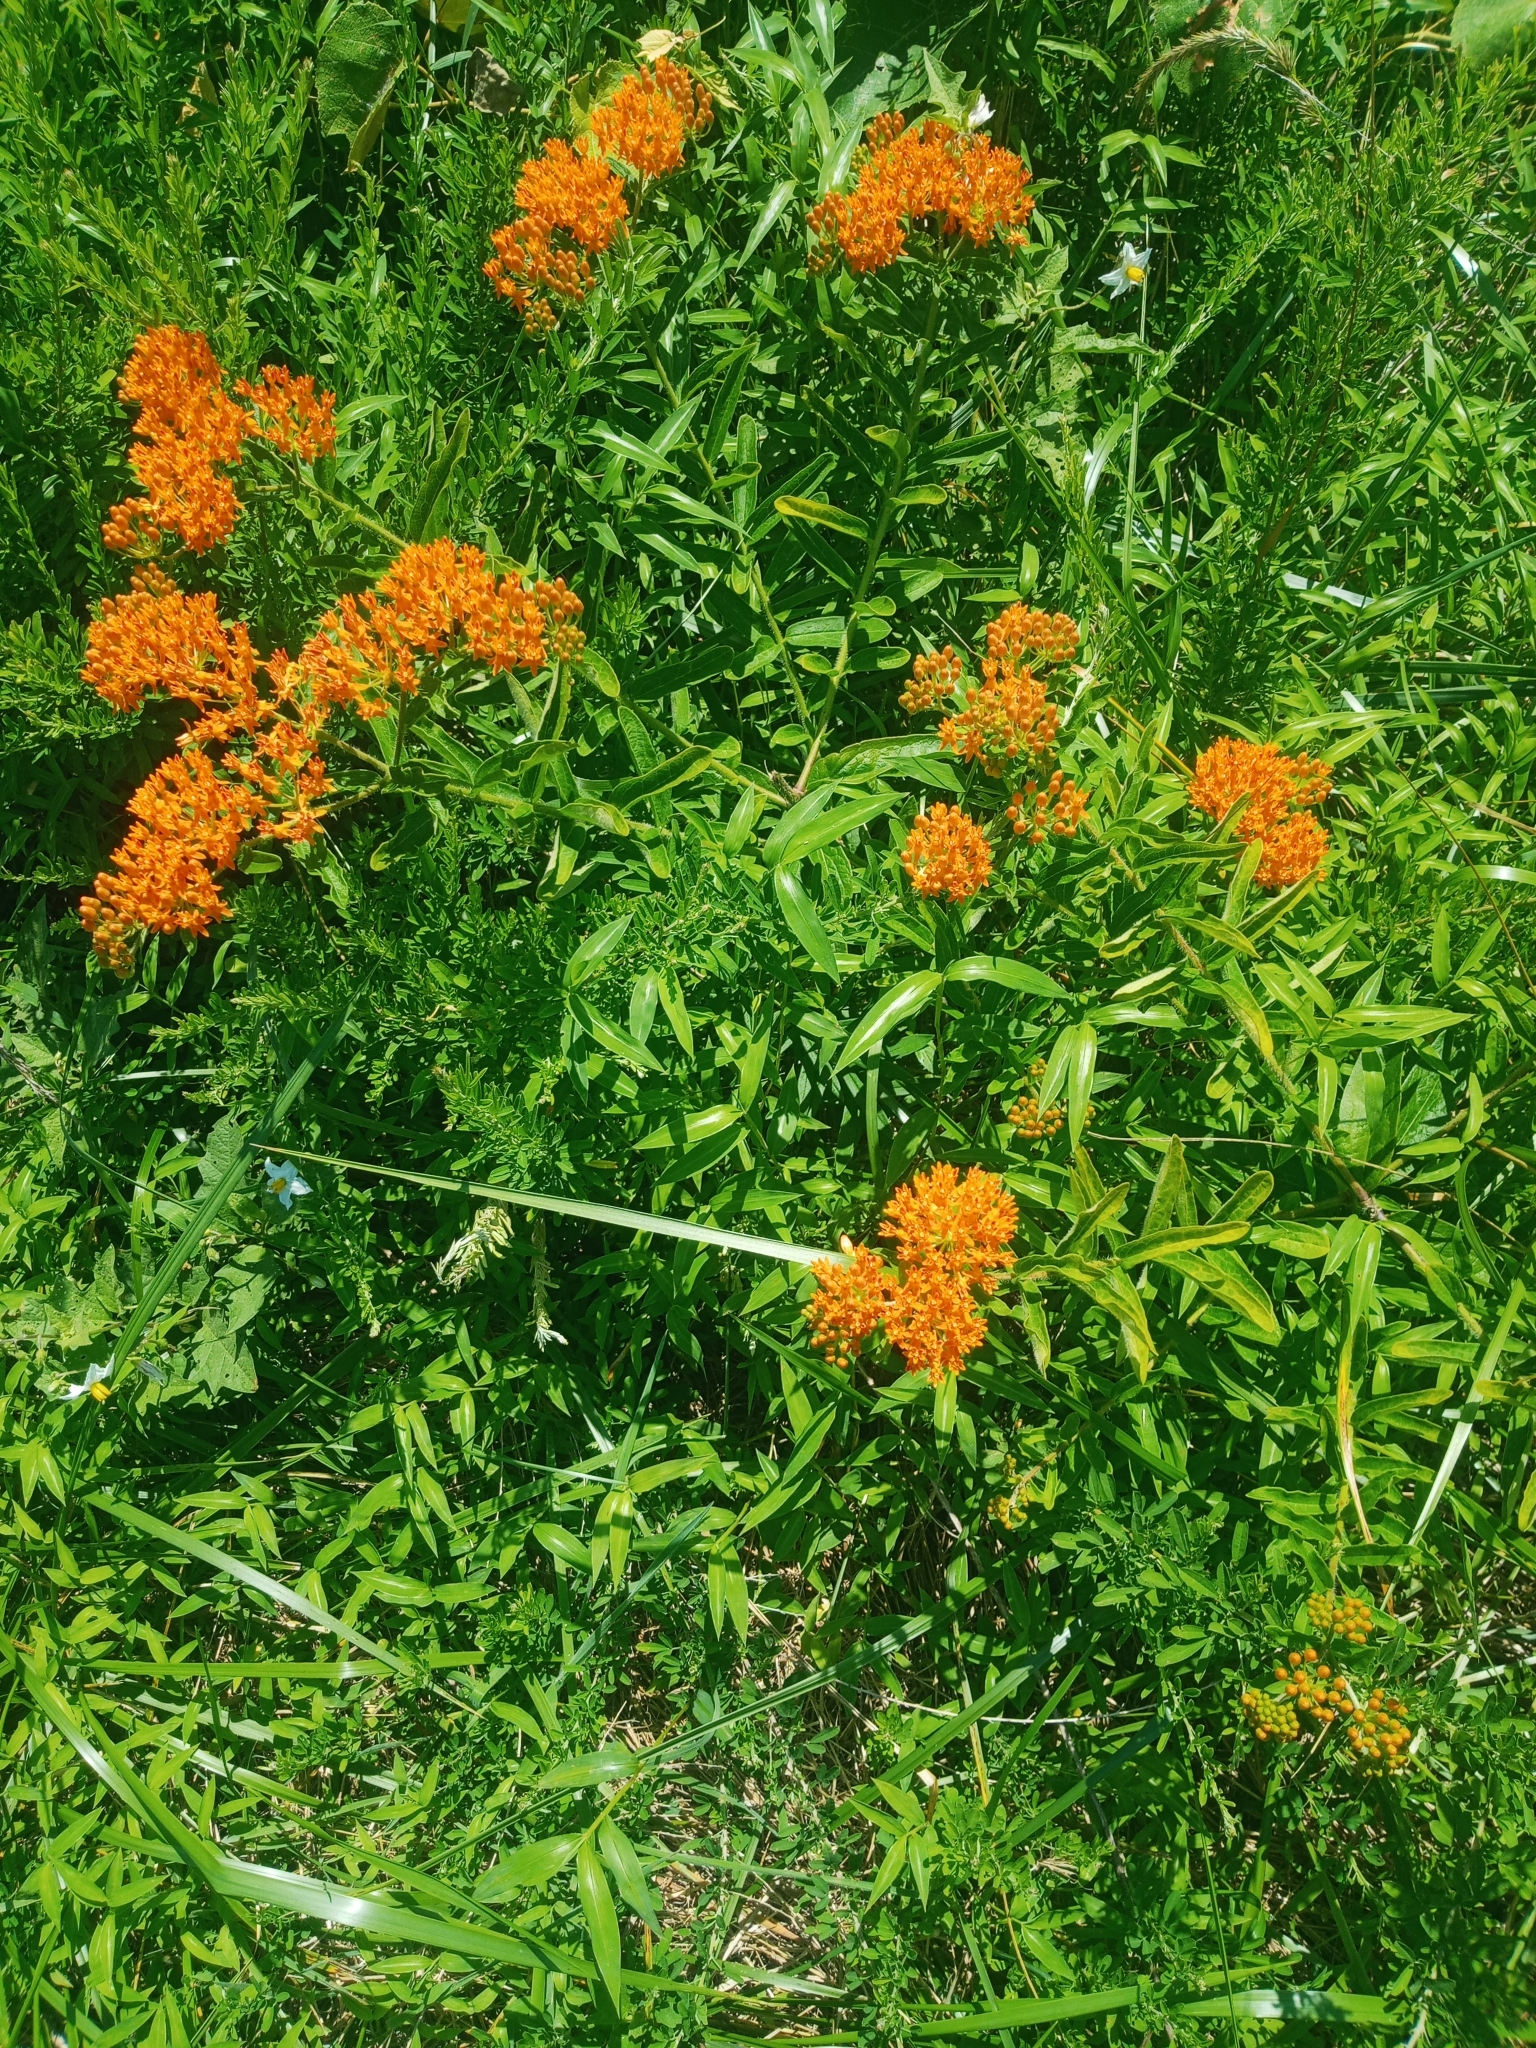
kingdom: Plantae
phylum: Tracheophyta
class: Magnoliopsida
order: Gentianales
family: Apocynaceae
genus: Asclepias
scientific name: Asclepias tuberosa
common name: Butterfly milkweed
